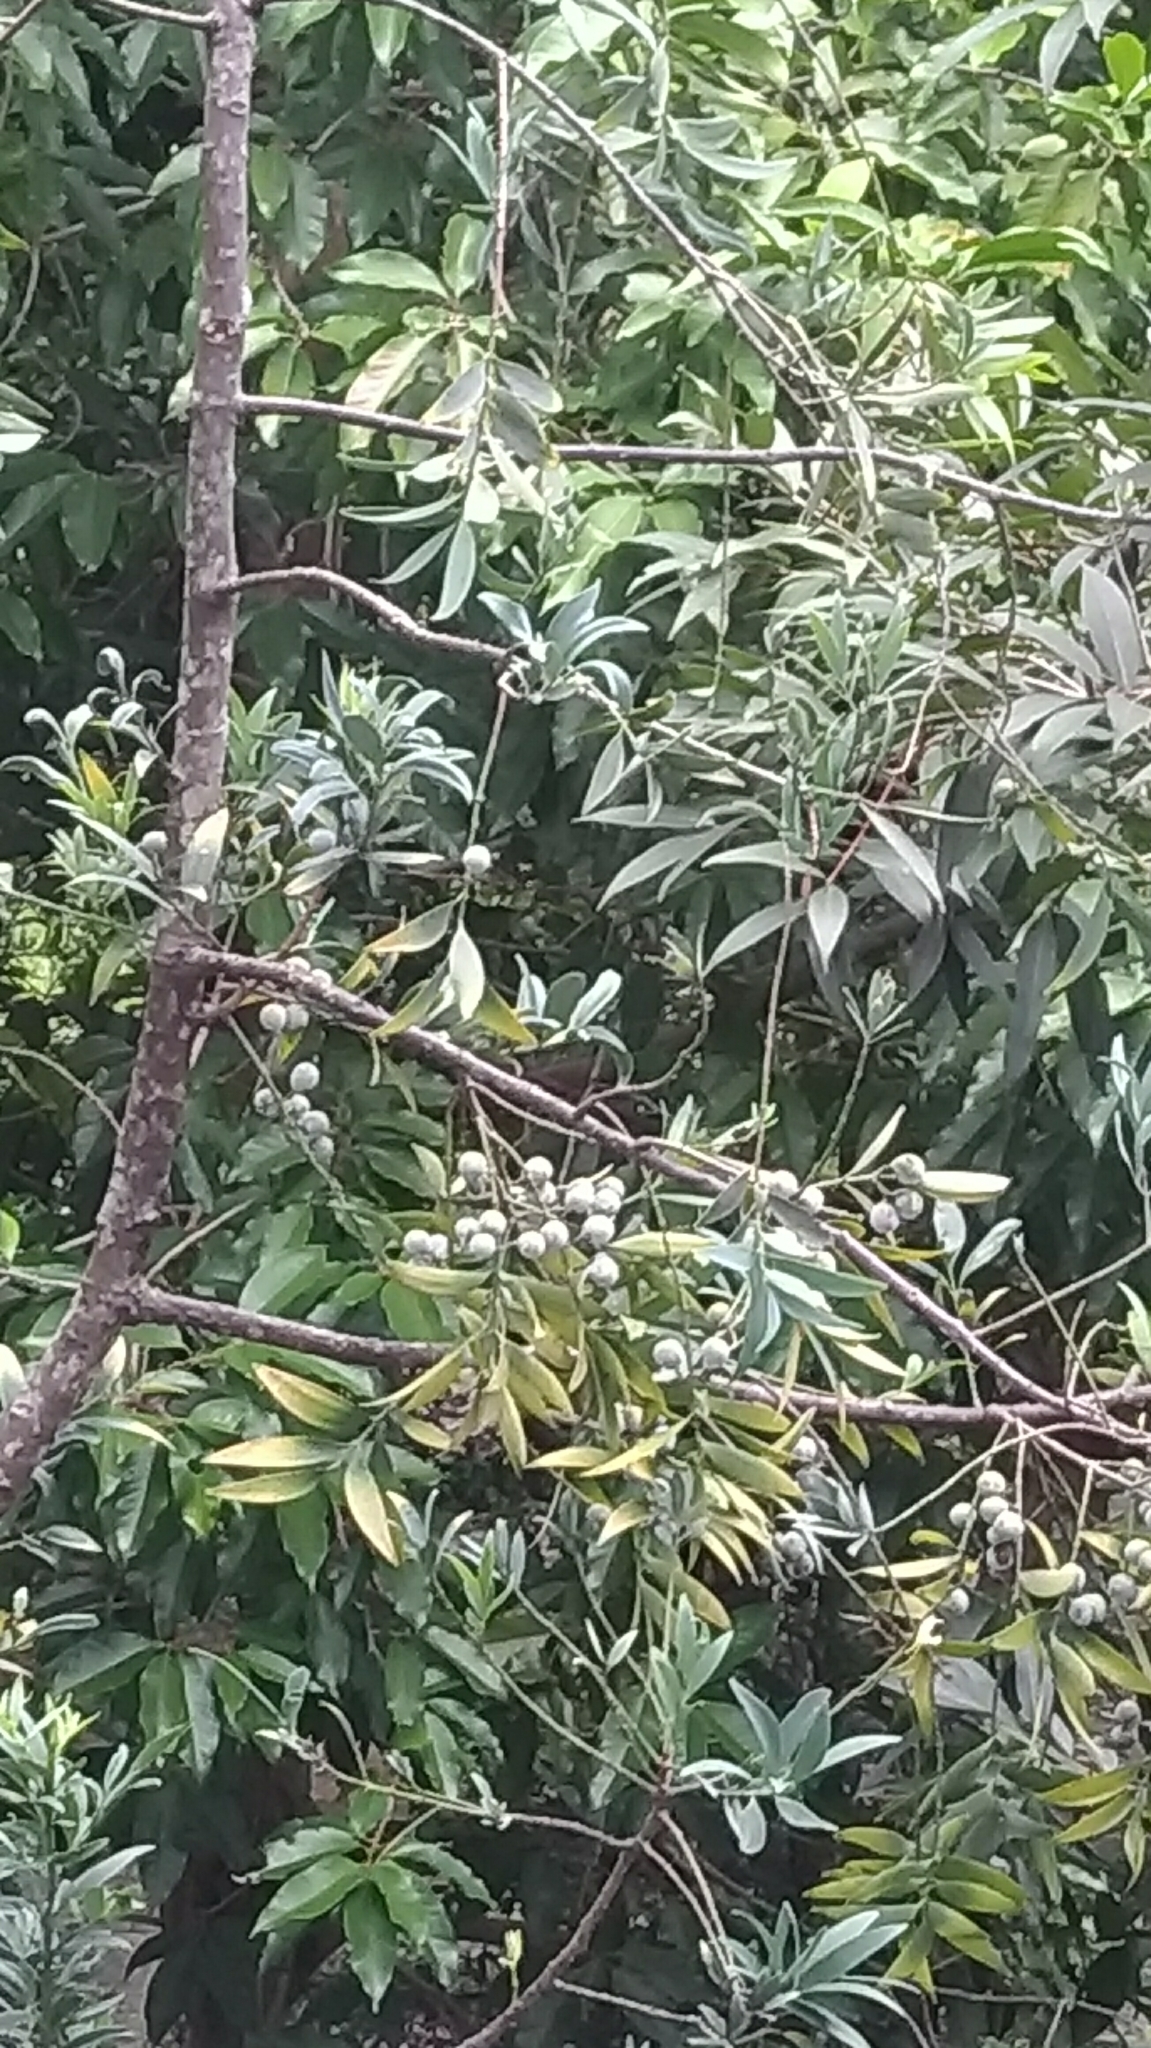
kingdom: Plantae
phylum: Tracheophyta
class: Pinopsida
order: Pinales
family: Podocarpaceae
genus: Nageia
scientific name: Nageia nagi
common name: Kaphal
